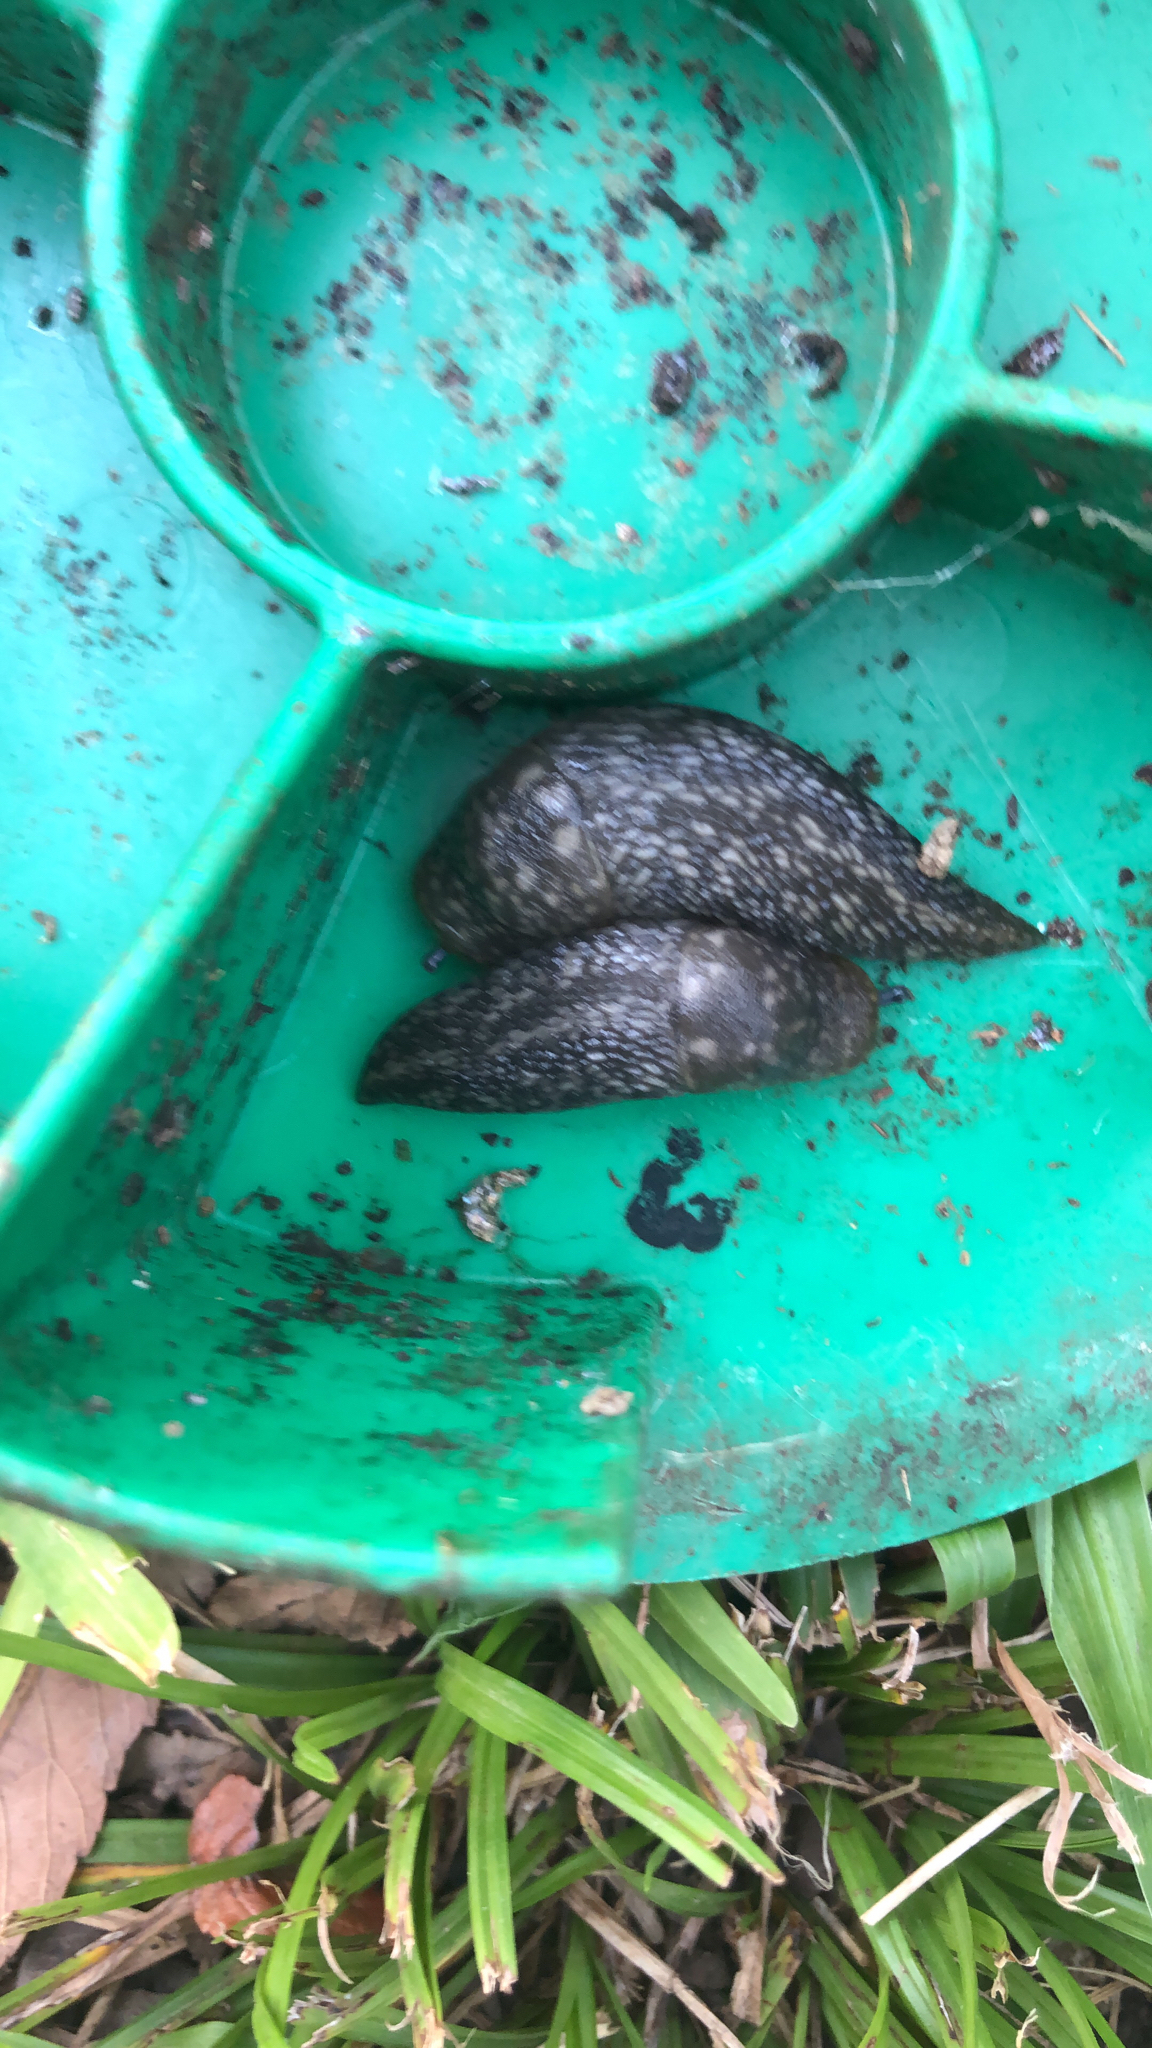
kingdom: Animalia
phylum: Mollusca
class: Gastropoda
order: Stylommatophora
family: Limacidae
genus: Limacus
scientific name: Limacus flavus
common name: Yellow gardenslug
